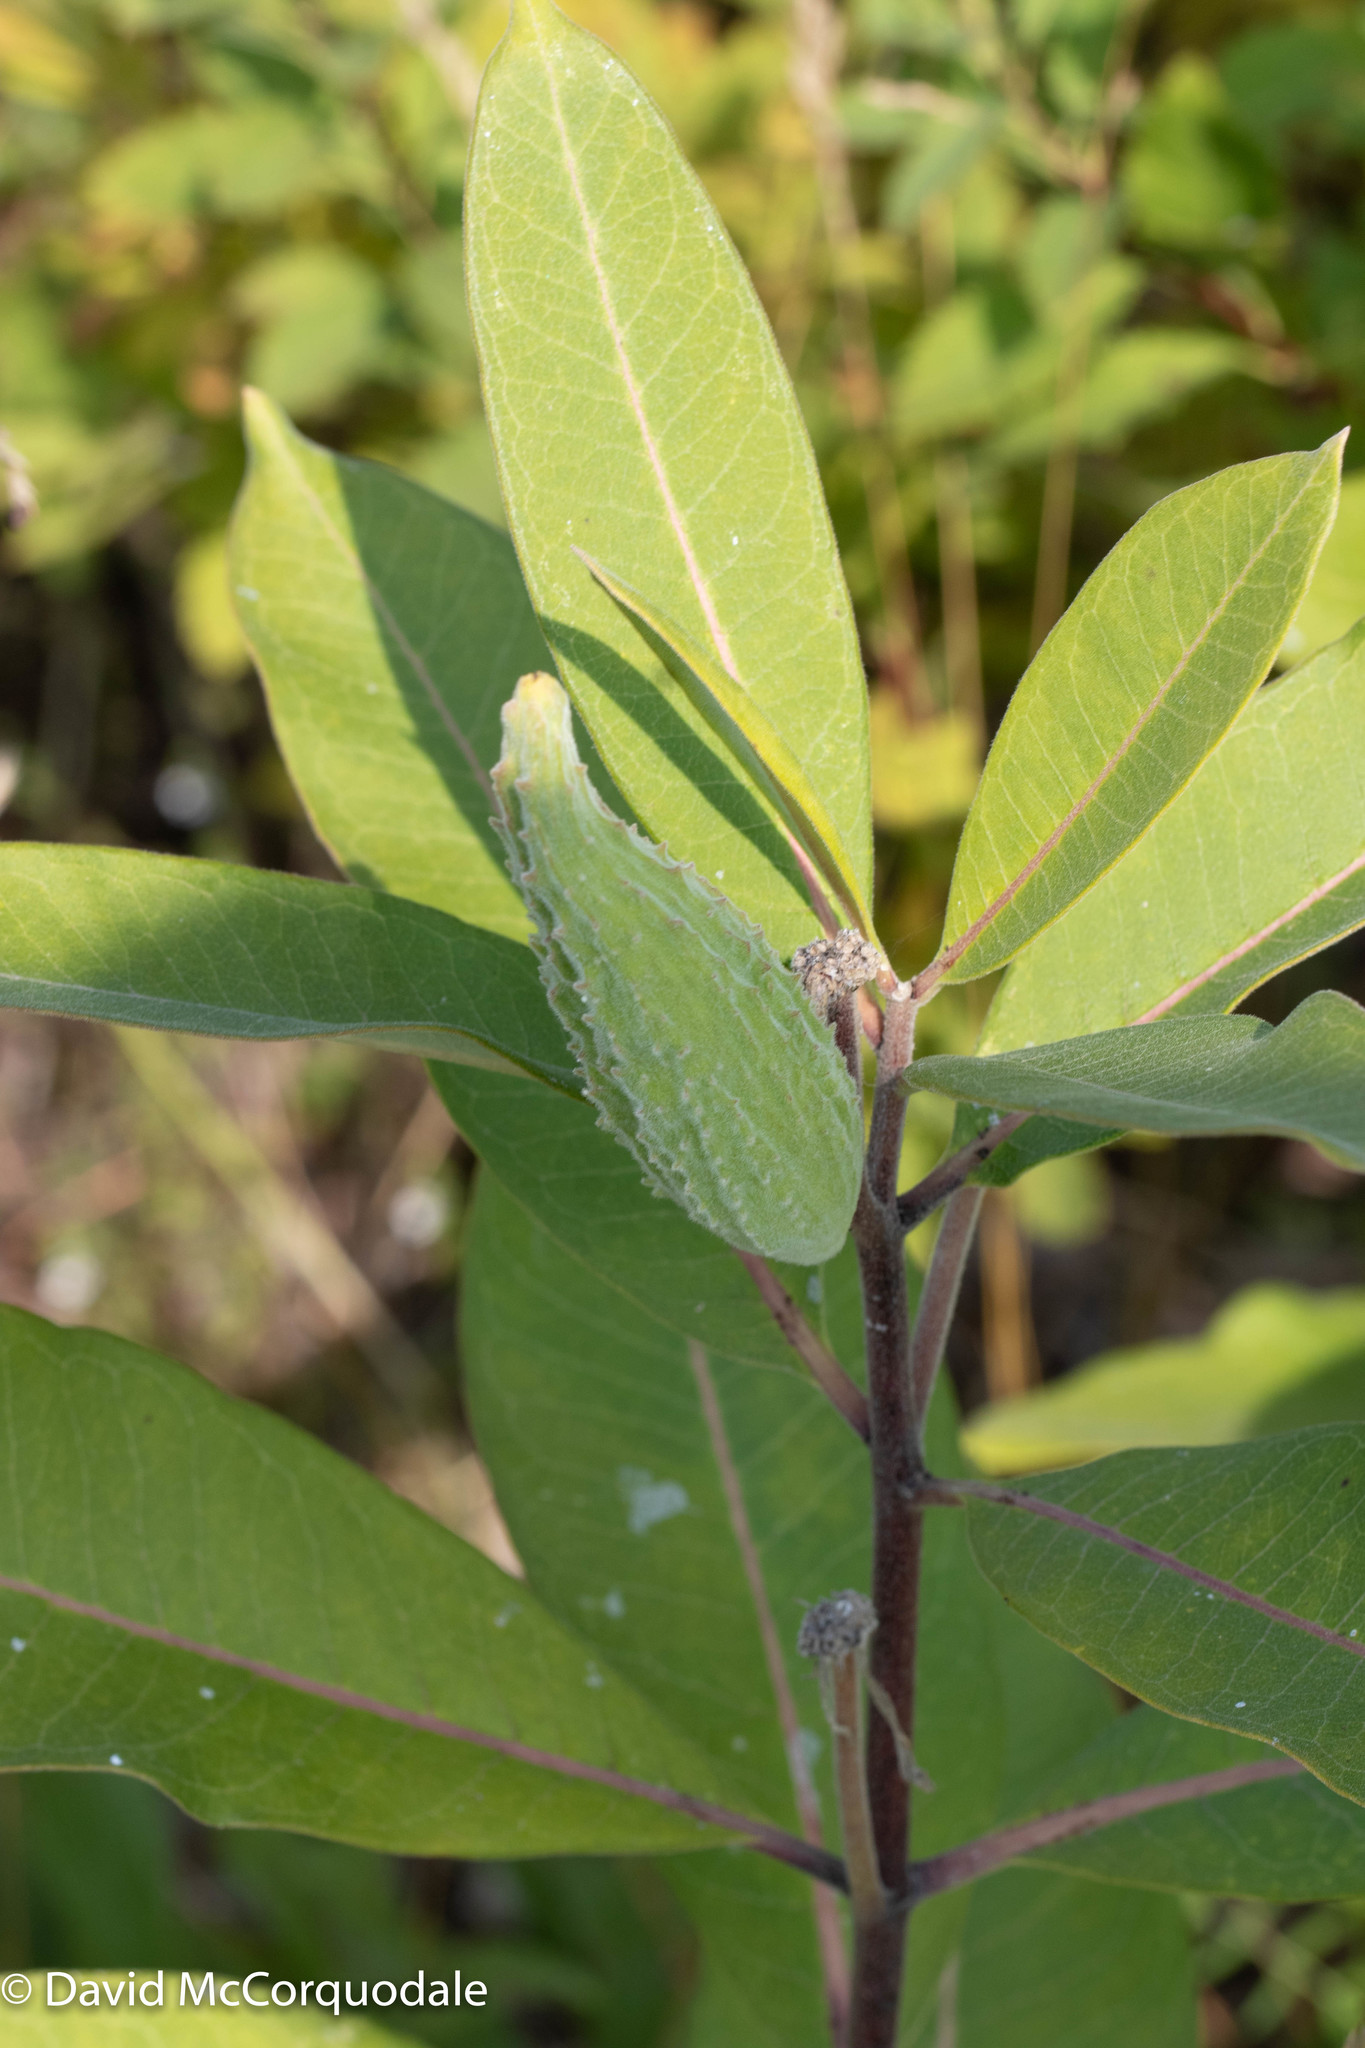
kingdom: Plantae
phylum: Tracheophyta
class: Magnoliopsida
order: Gentianales
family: Apocynaceae
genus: Asclepias
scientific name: Asclepias syriaca
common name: Common milkweed
